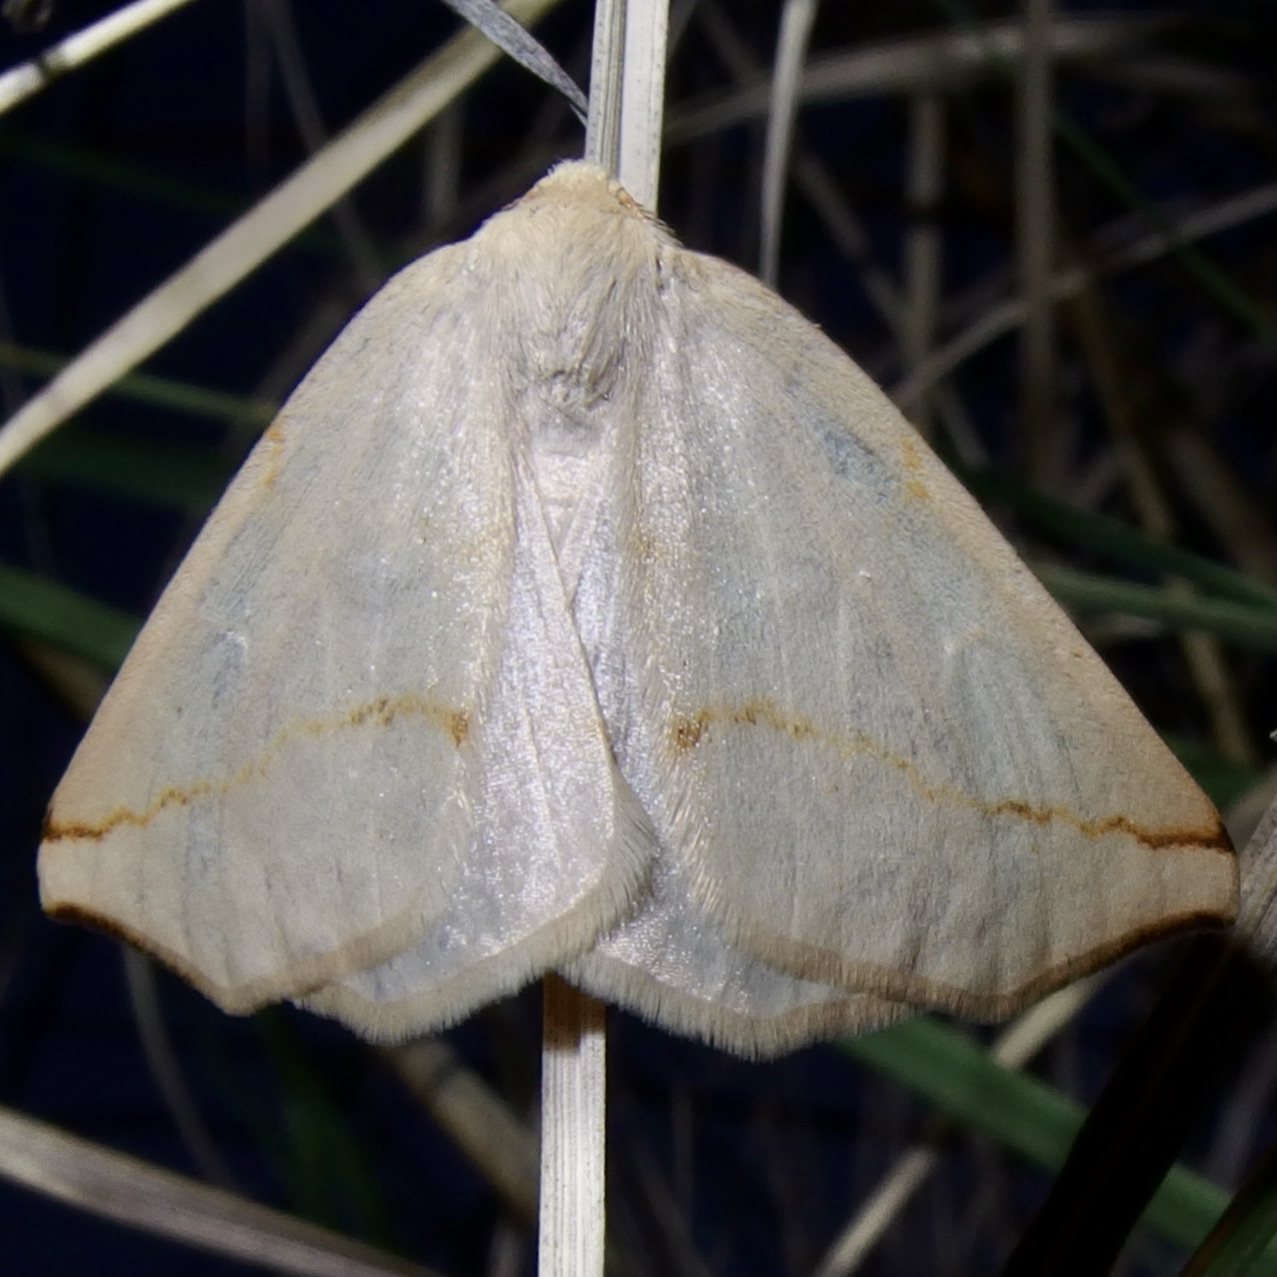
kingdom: Animalia
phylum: Arthropoda
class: Insecta
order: Lepidoptera
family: Geometridae
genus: Neoterpes
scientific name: Neoterpes ephelidaria
